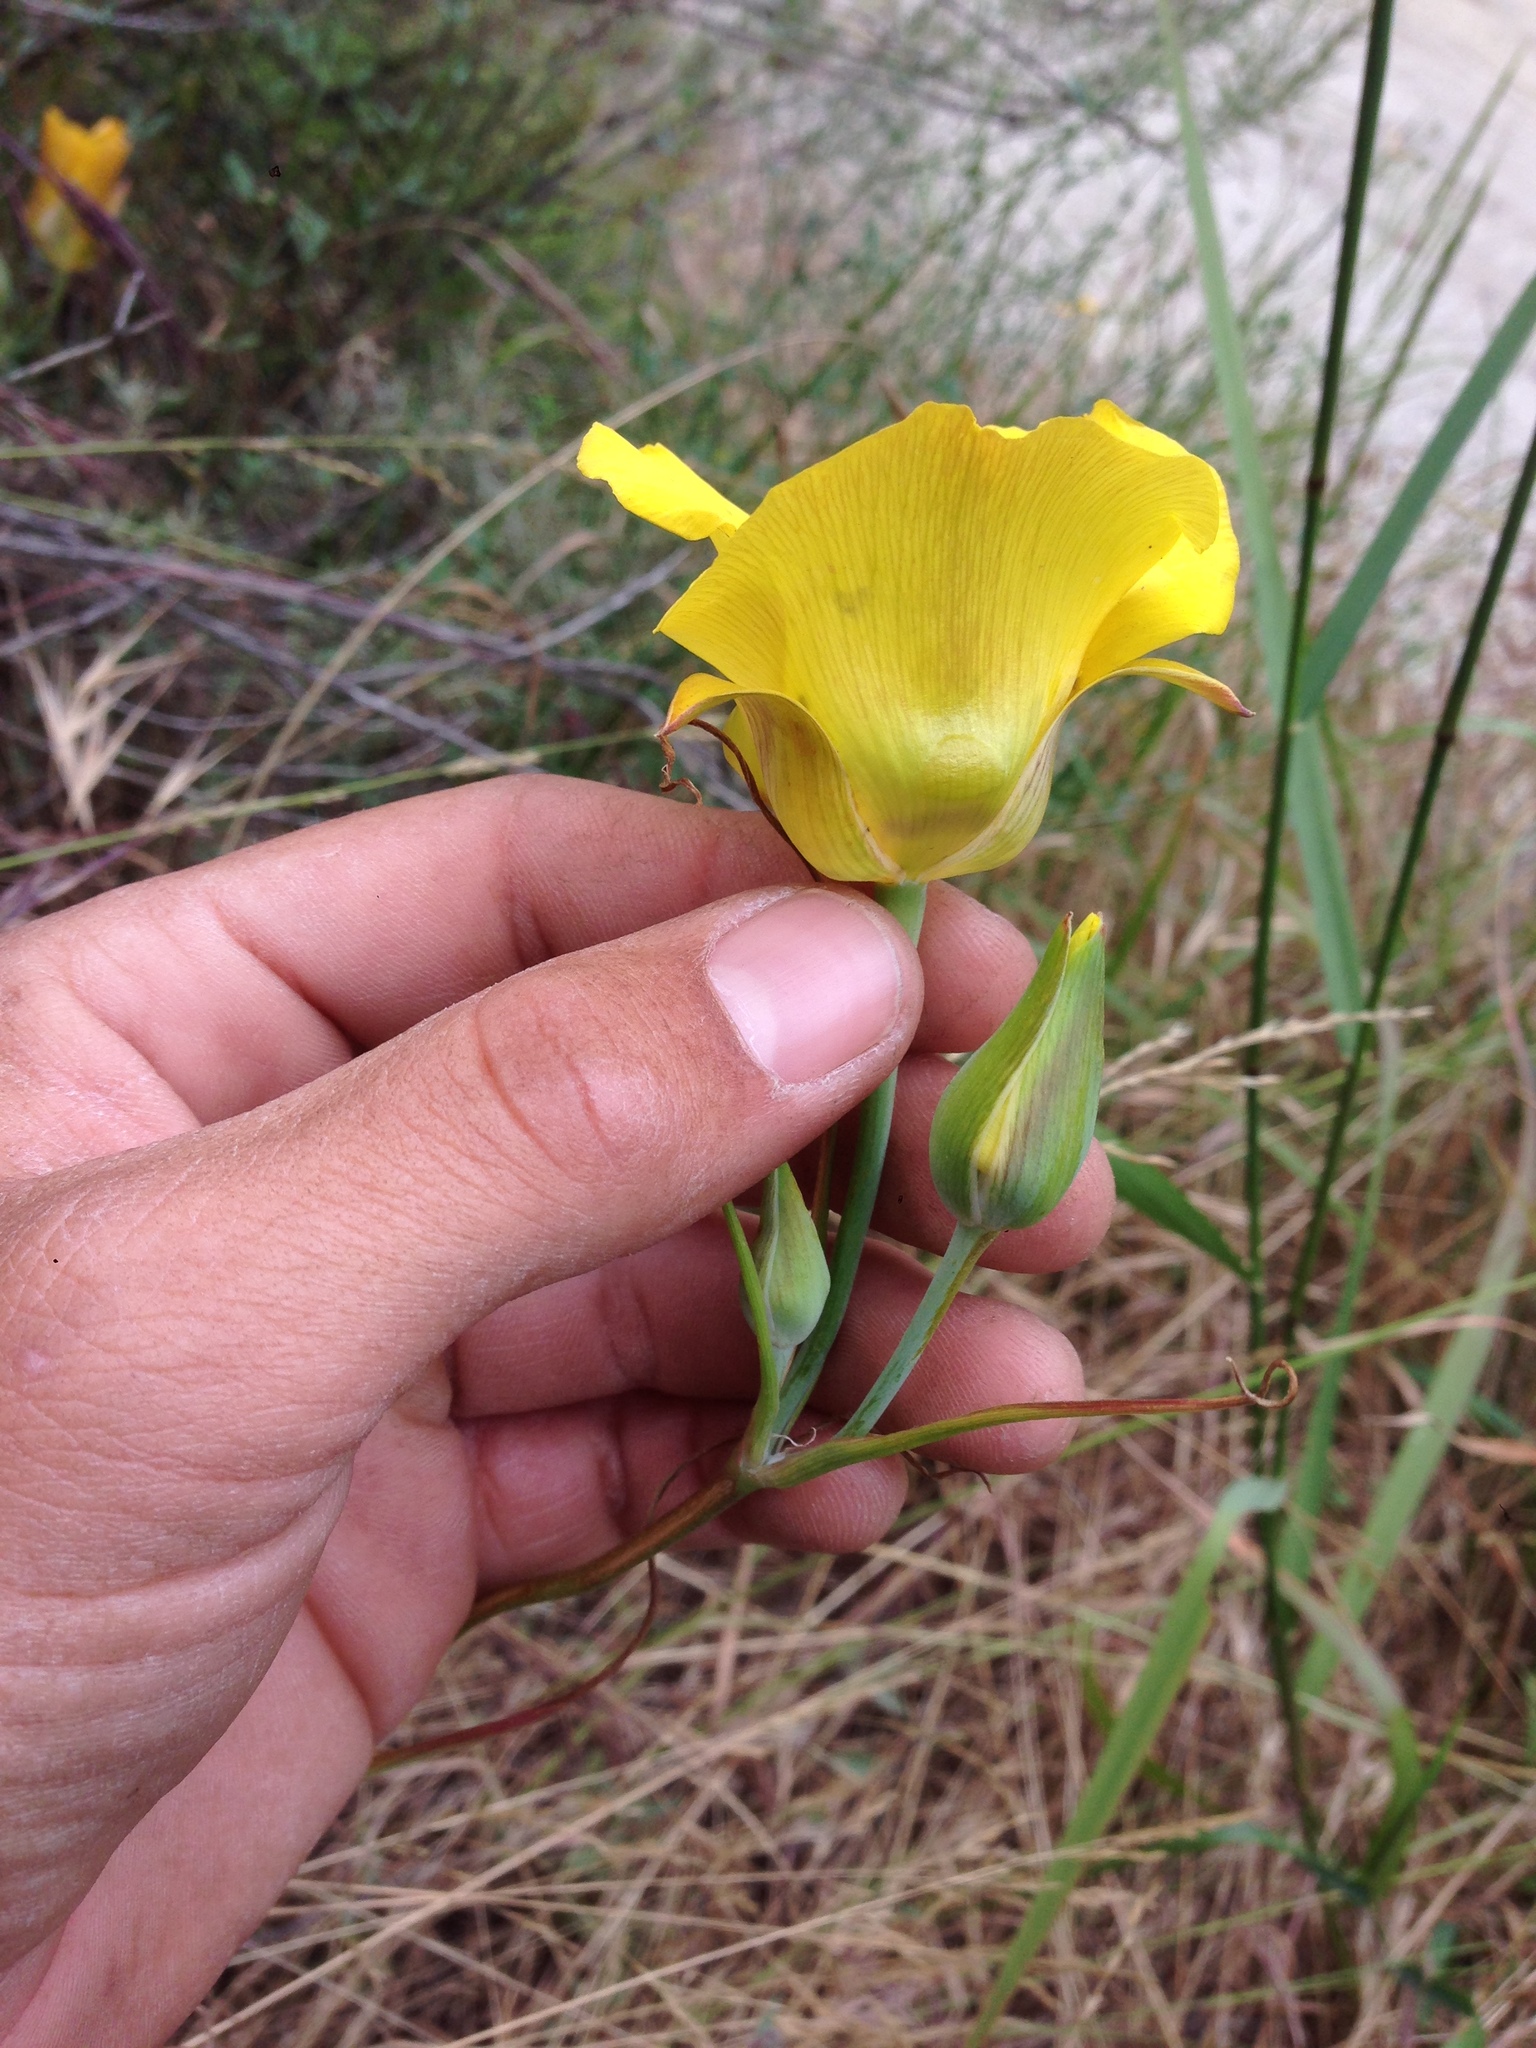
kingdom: Plantae
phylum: Tracheophyta
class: Liliopsida
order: Liliales
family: Liliaceae
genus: Calochortus
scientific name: Calochortus clavatus
